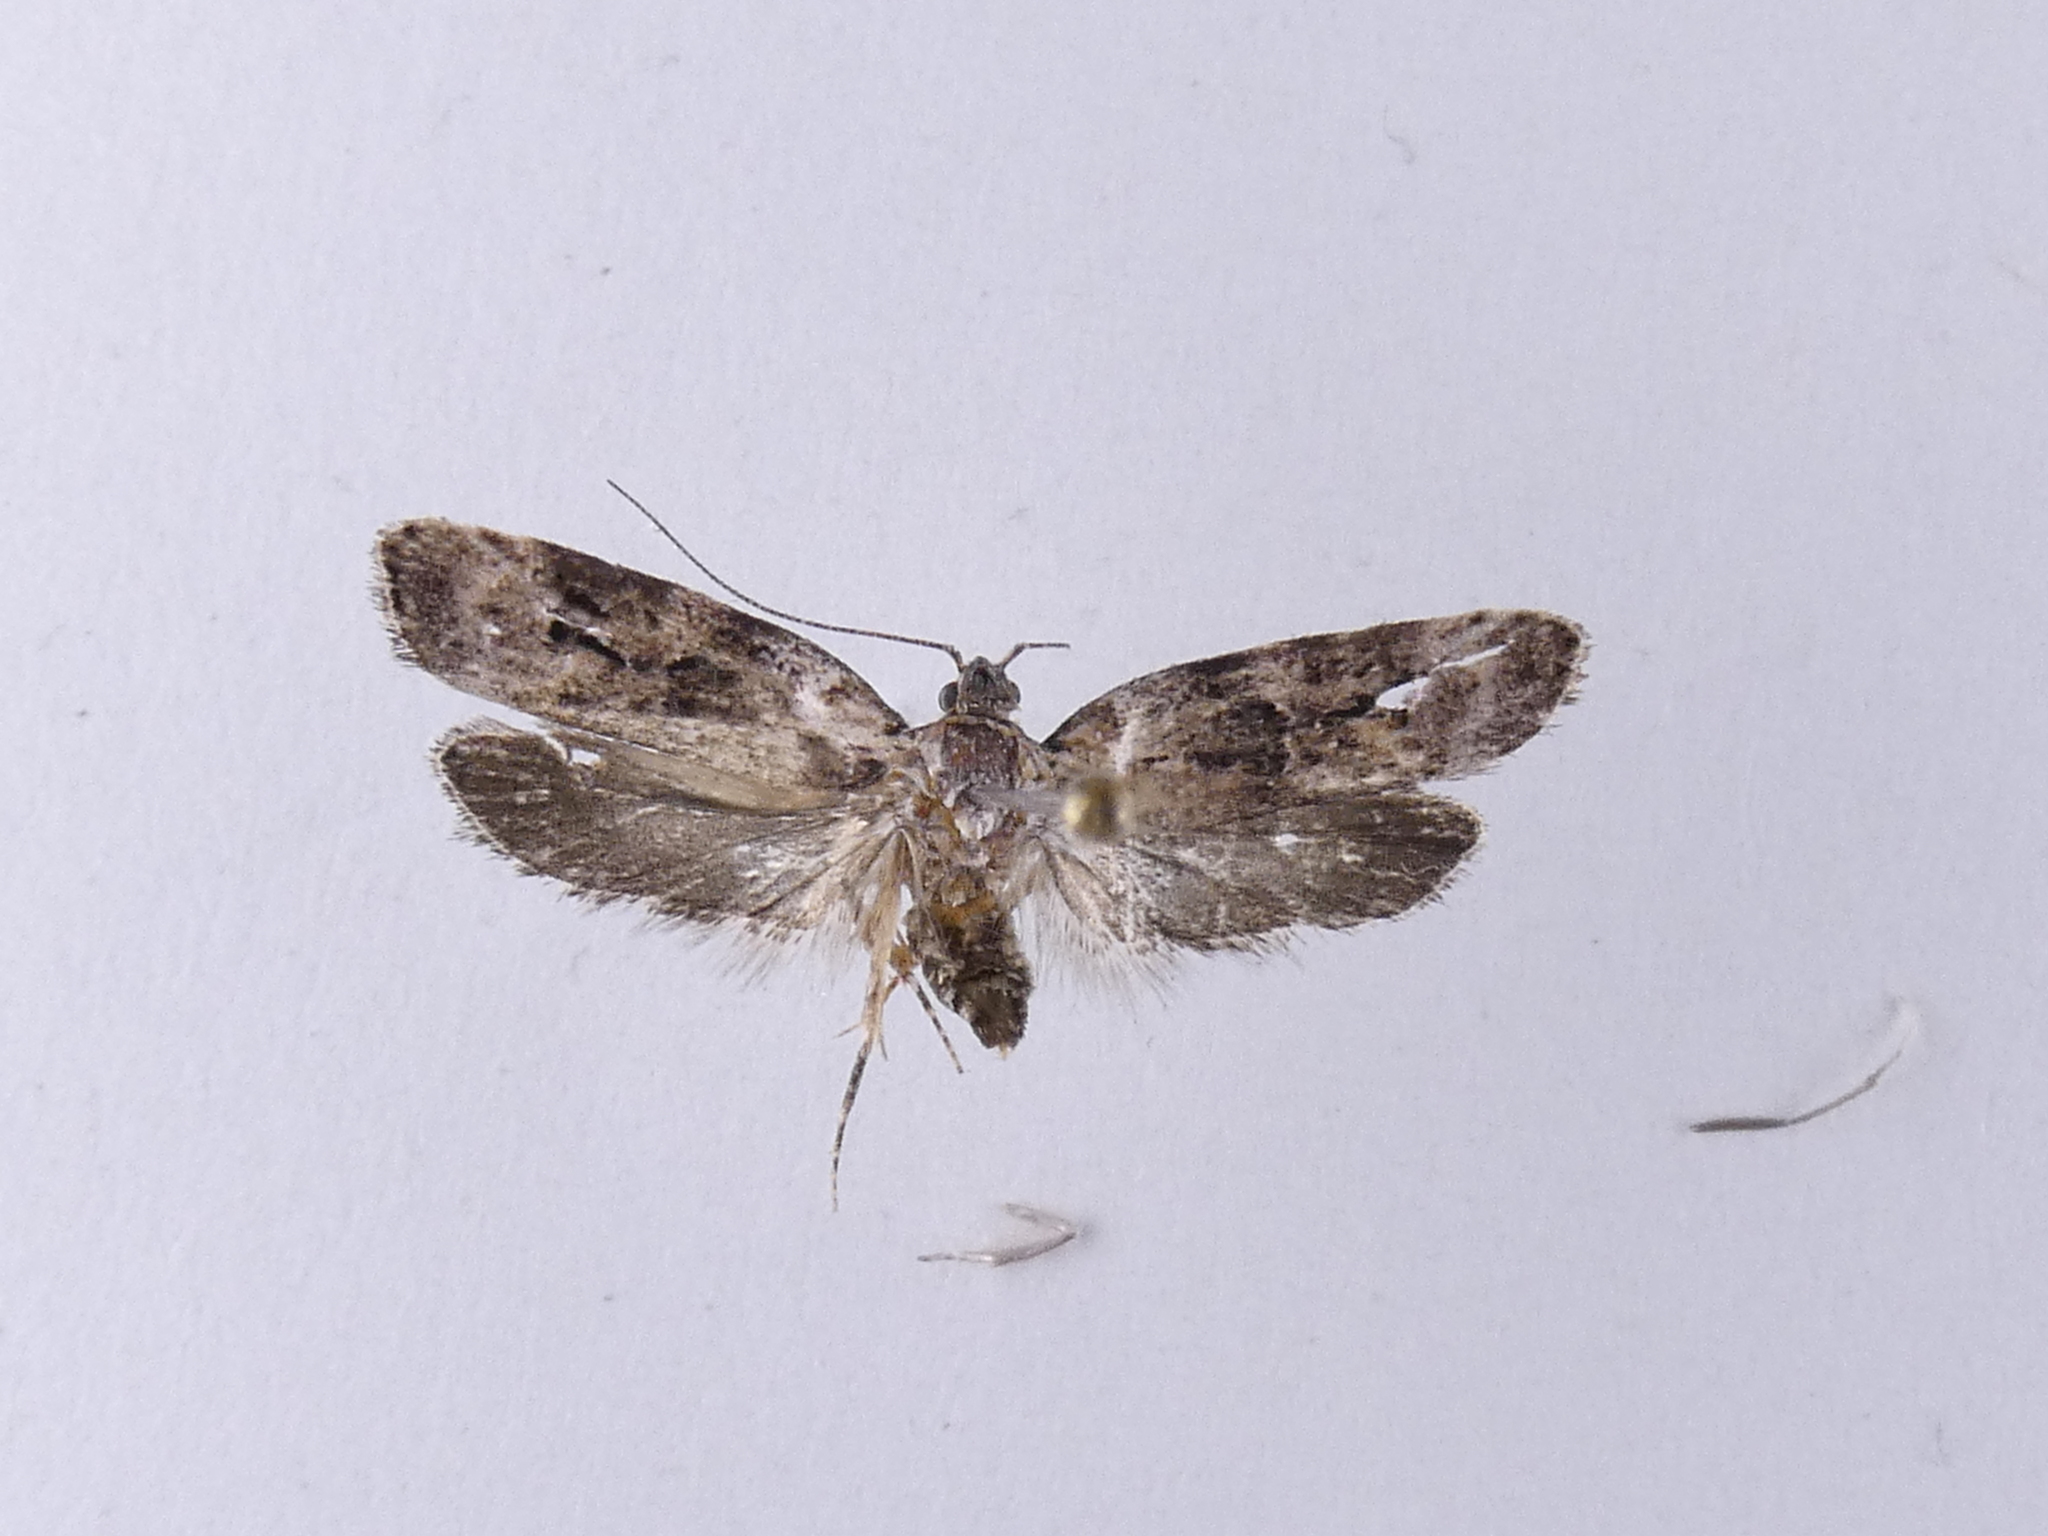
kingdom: Animalia
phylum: Arthropoda
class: Insecta
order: Lepidoptera
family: Oecophoridae
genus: Izatha
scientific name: Izatha metadelta
